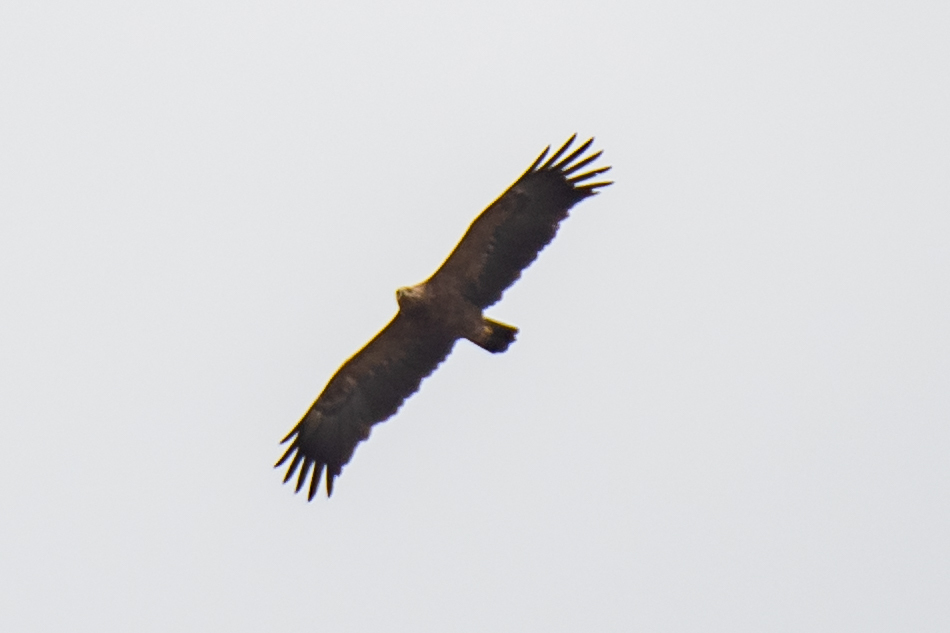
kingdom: Animalia
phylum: Chordata
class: Aves
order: Accipitriformes
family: Accipitridae
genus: Aquila
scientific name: Aquila pomarina
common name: Lesser spotted eagle
